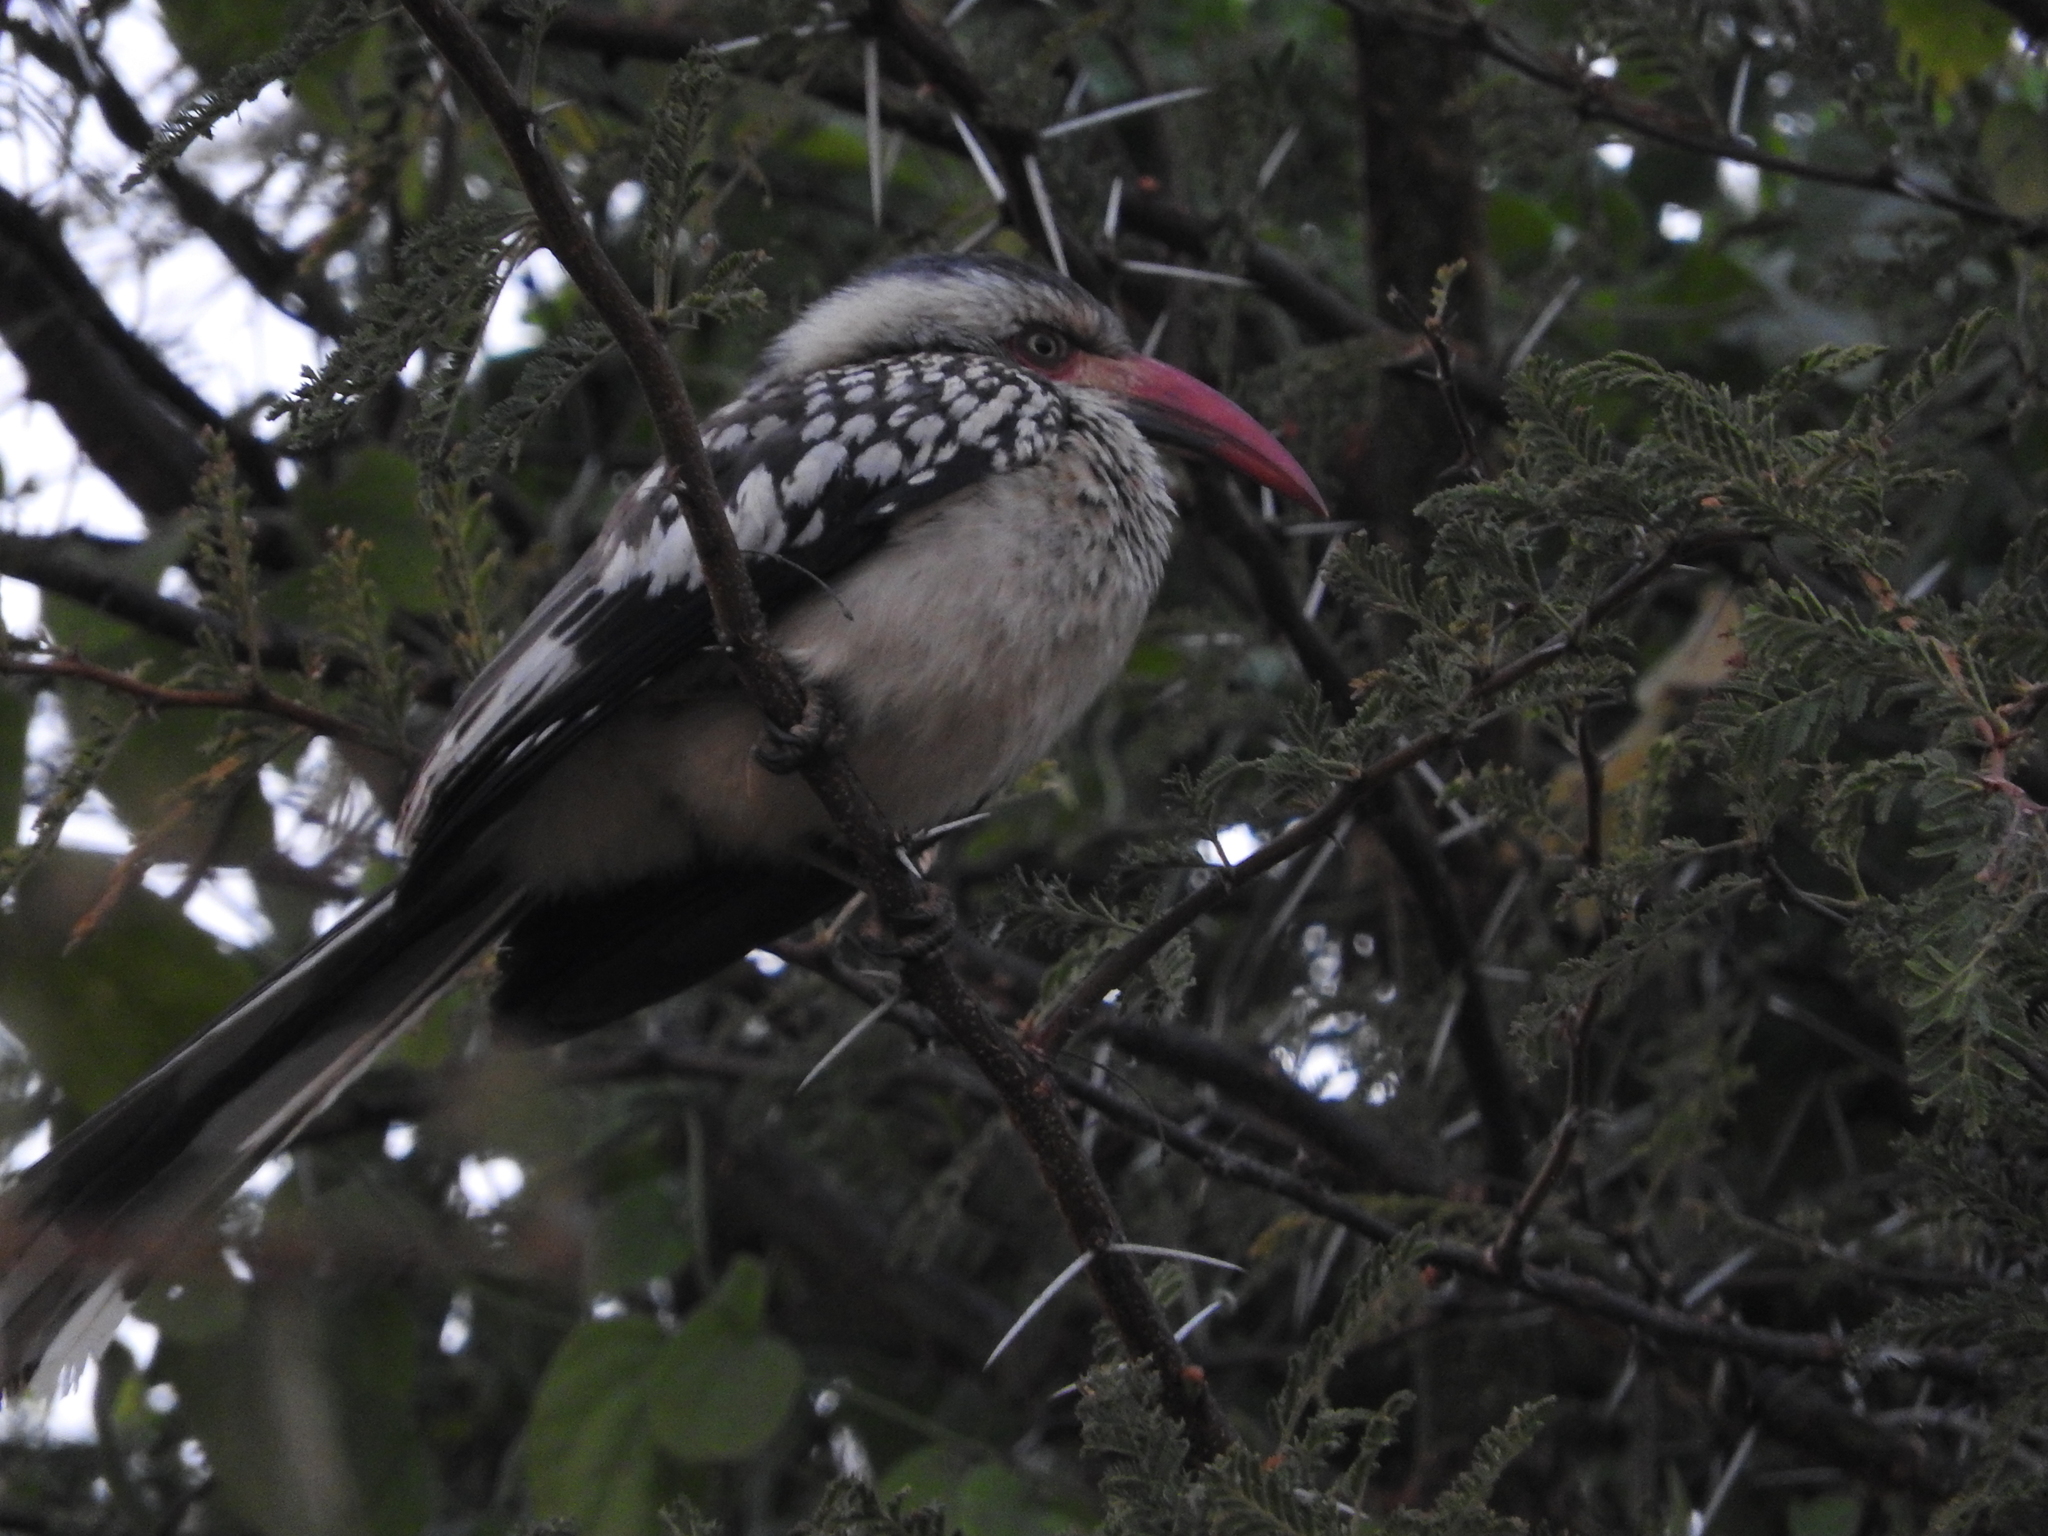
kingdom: Animalia
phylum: Chordata
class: Aves
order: Bucerotiformes
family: Bucerotidae
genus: Tockus
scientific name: Tockus rufirostris
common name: Southern red-billed hornbill
